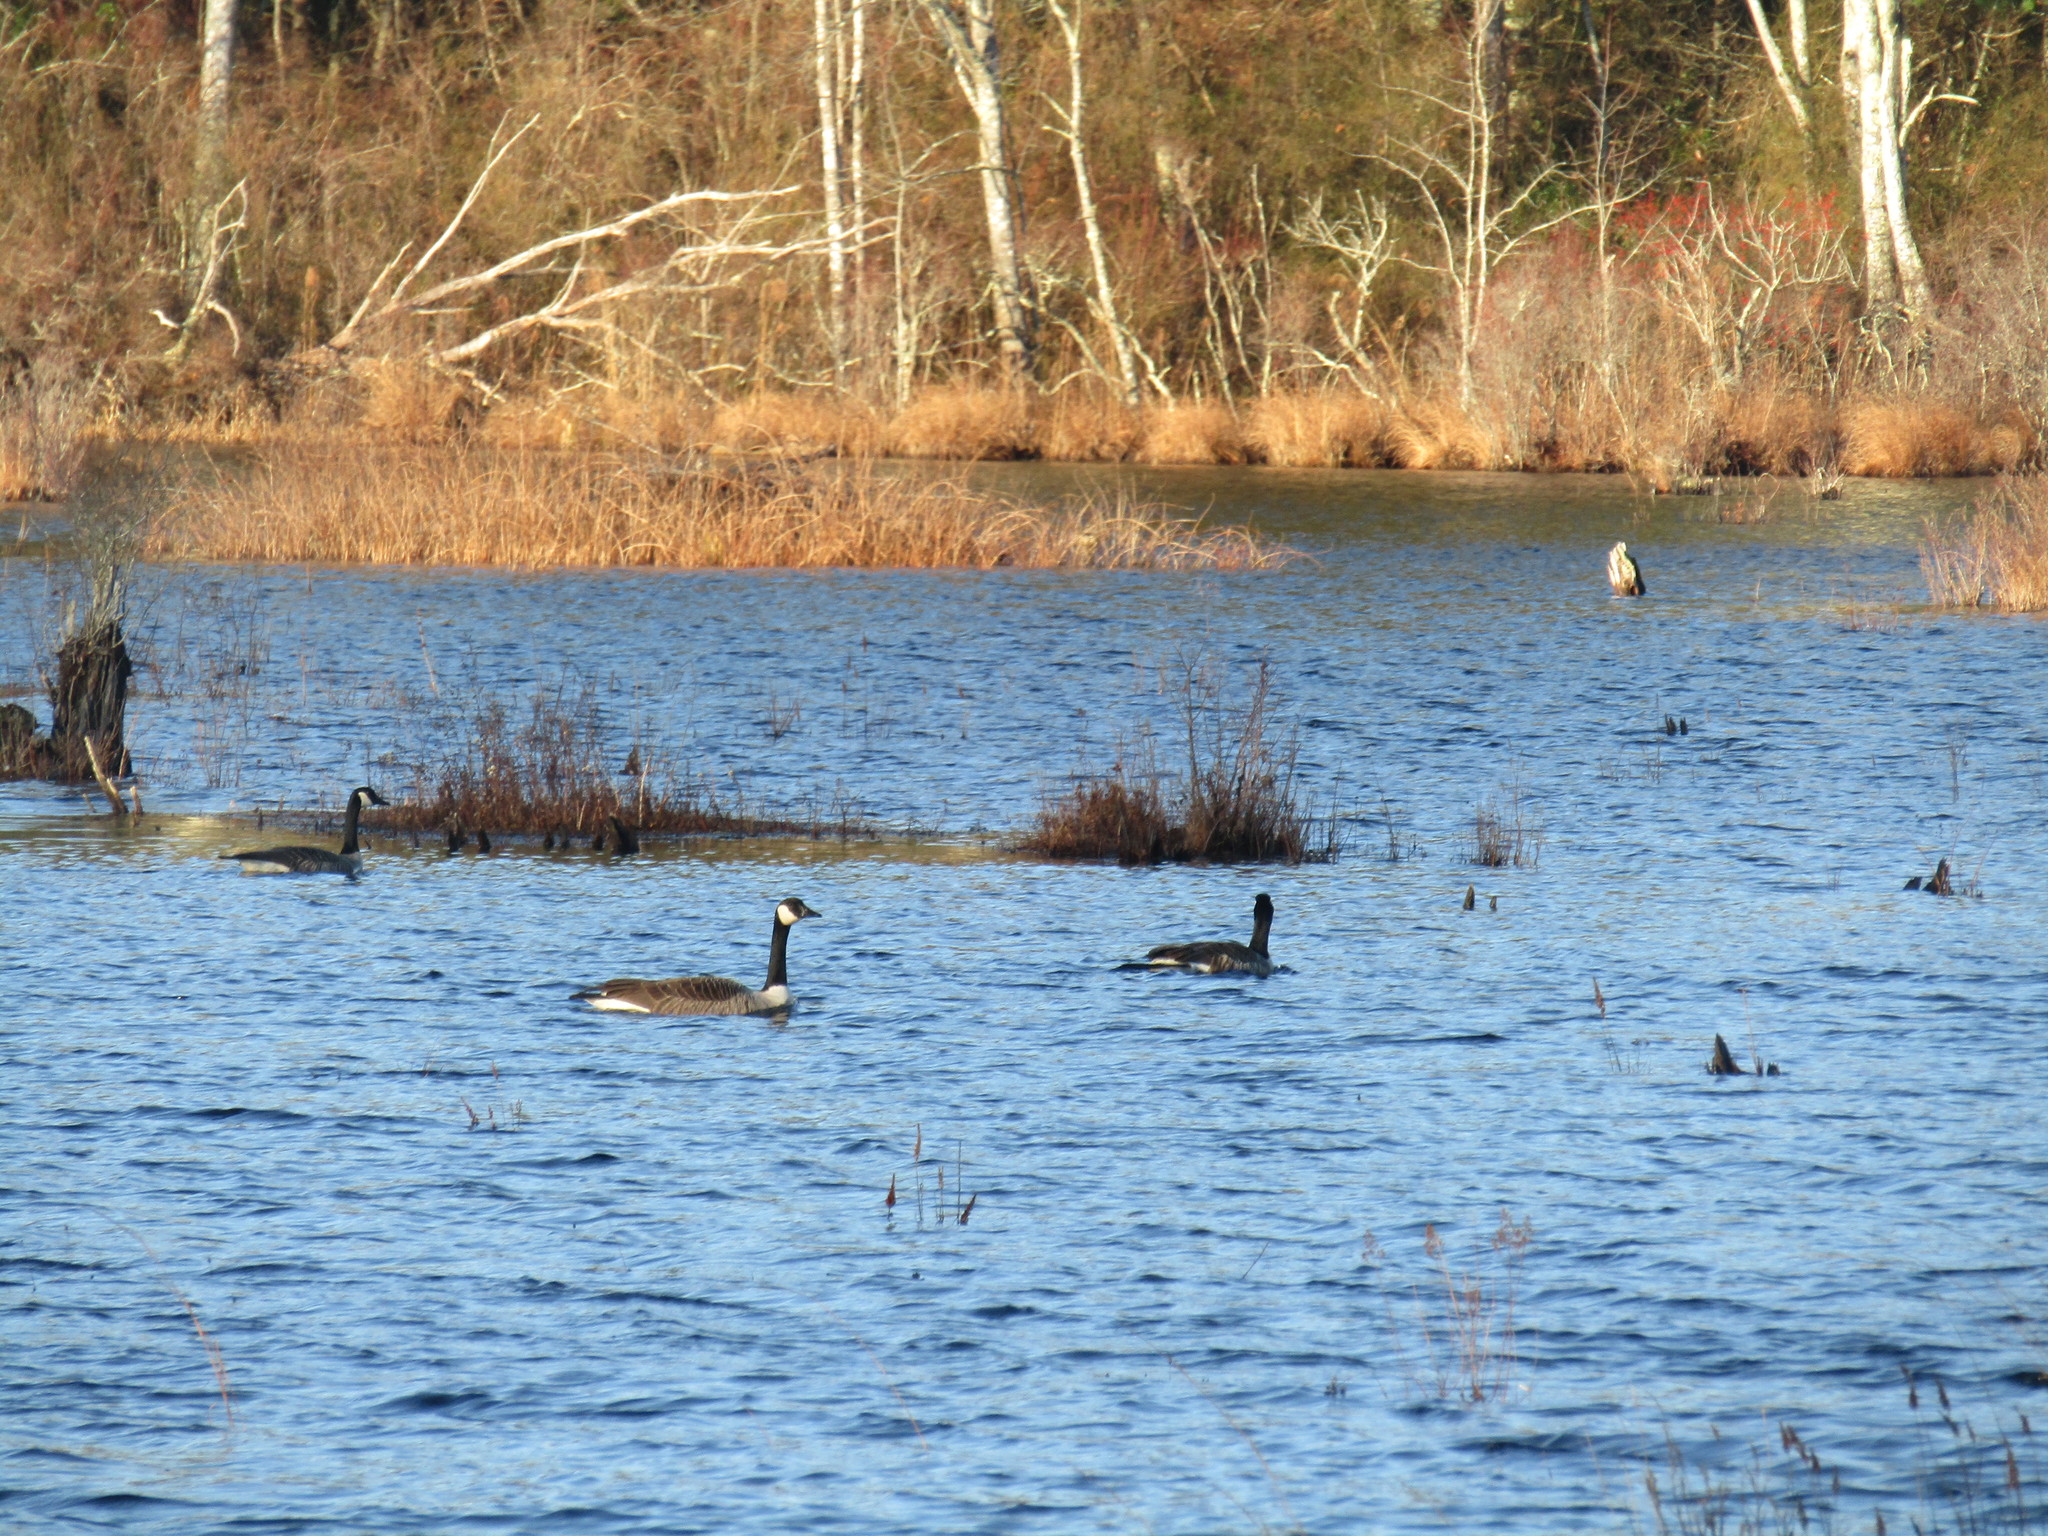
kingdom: Animalia
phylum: Chordata
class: Aves
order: Anseriformes
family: Anatidae
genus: Branta
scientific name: Branta canadensis
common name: Canada goose
